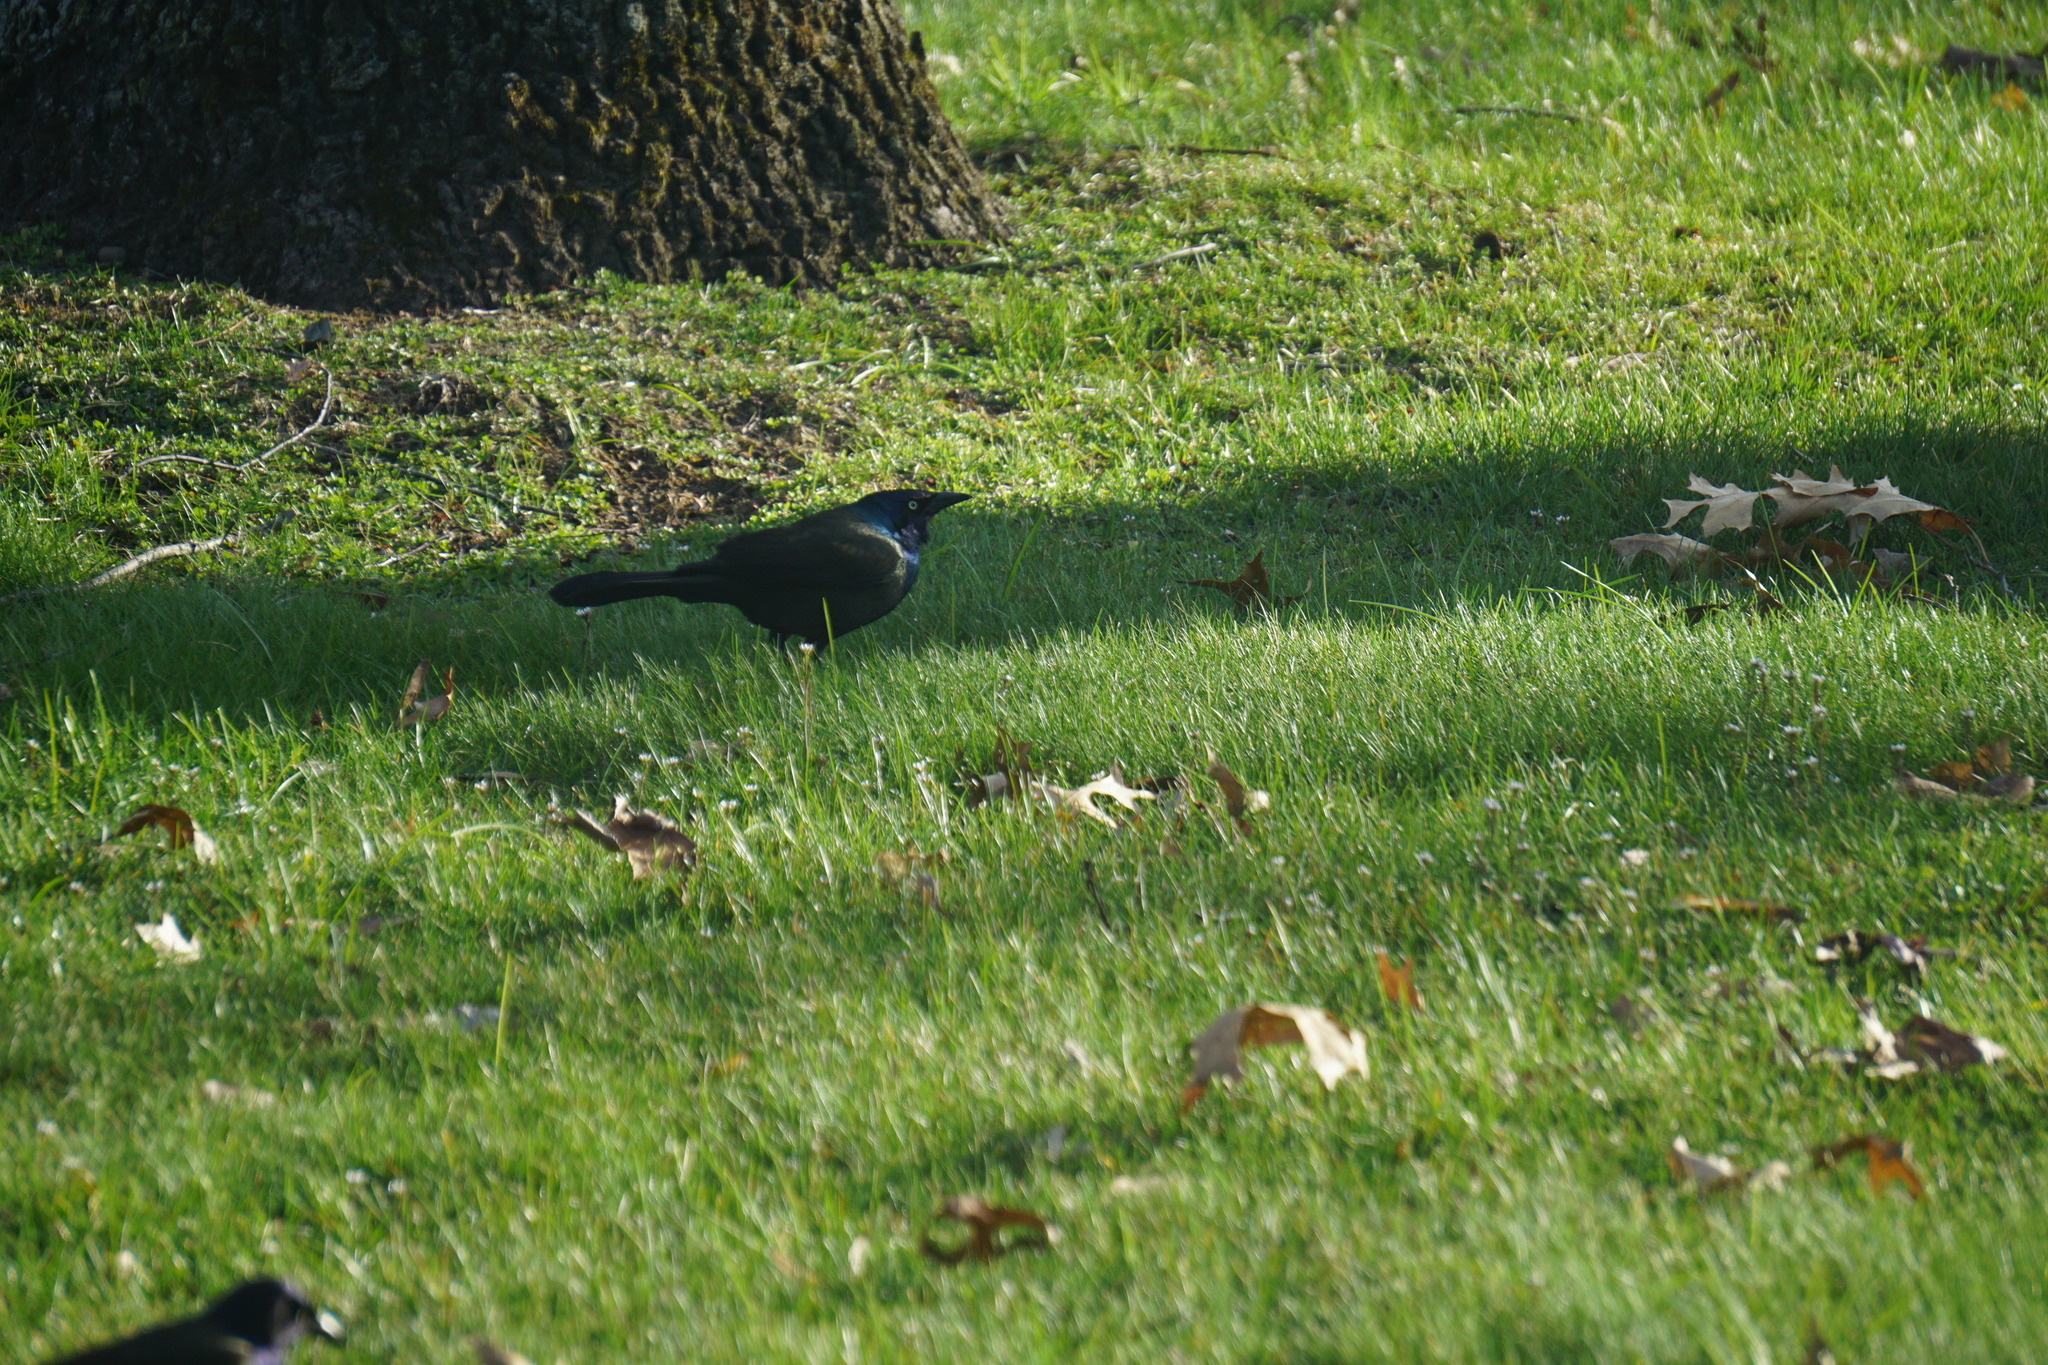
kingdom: Animalia
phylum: Chordata
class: Aves
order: Passeriformes
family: Icteridae
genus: Quiscalus
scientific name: Quiscalus quiscula
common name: Common grackle
